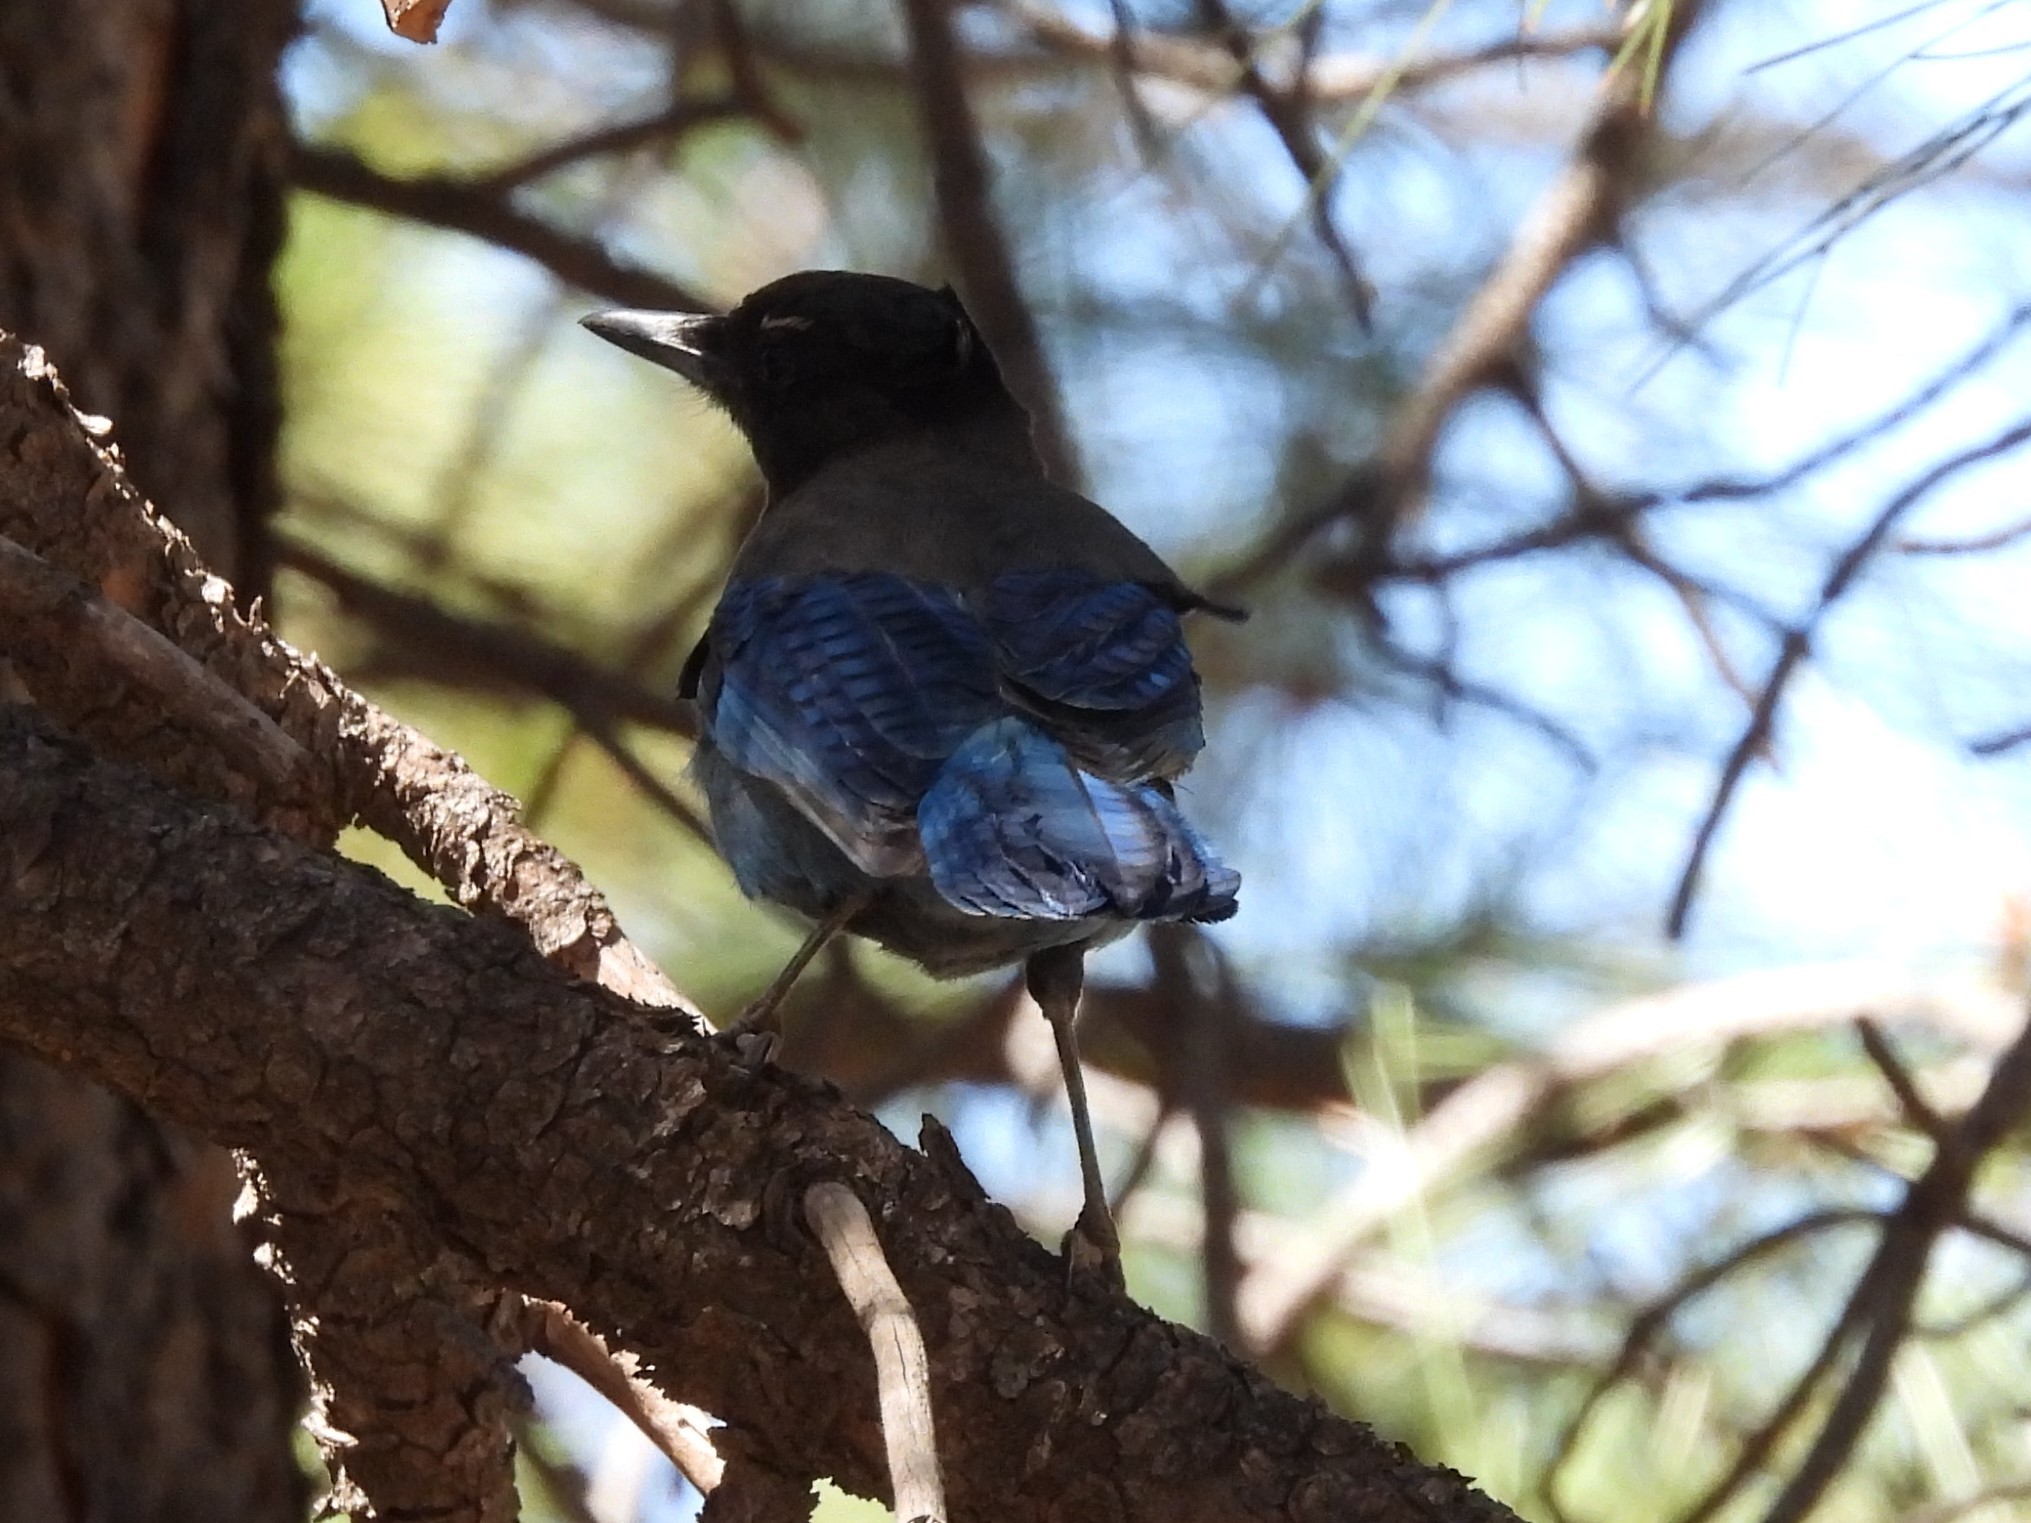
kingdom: Animalia
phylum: Chordata
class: Aves
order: Passeriformes
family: Corvidae
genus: Cyanocitta
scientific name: Cyanocitta stelleri
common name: Steller's jay
